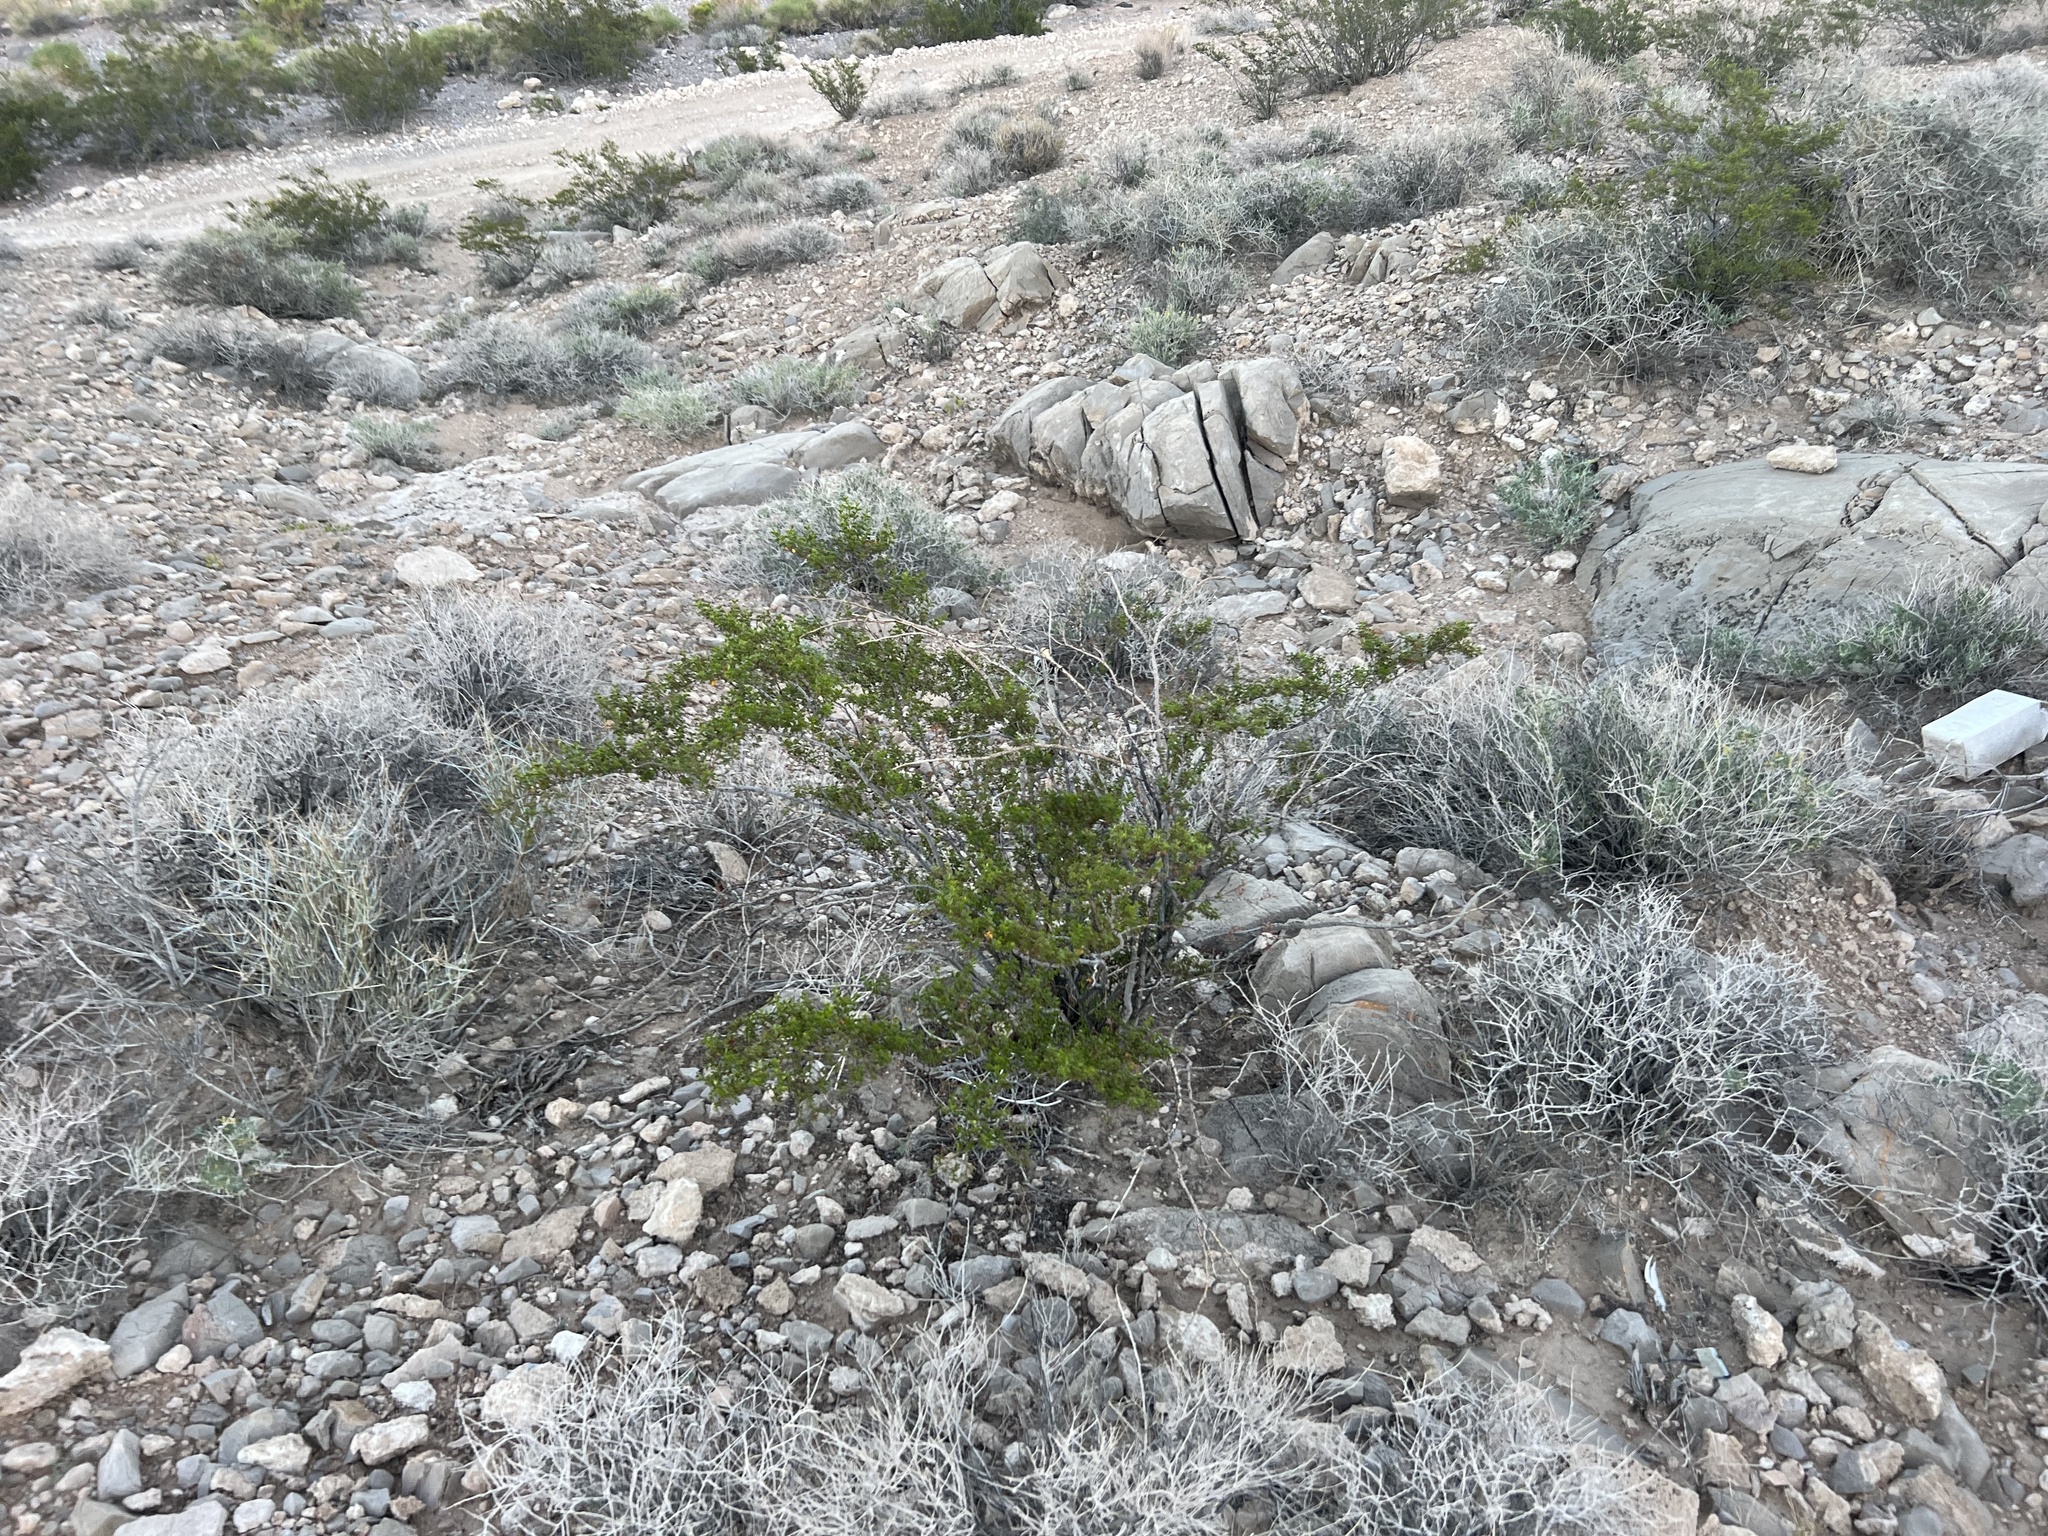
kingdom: Plantae
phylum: Tracheophyta
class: Magnoliopsida
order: Zygophyllales
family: Zygophyllaceae
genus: Larrea
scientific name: Larrea tridentata
